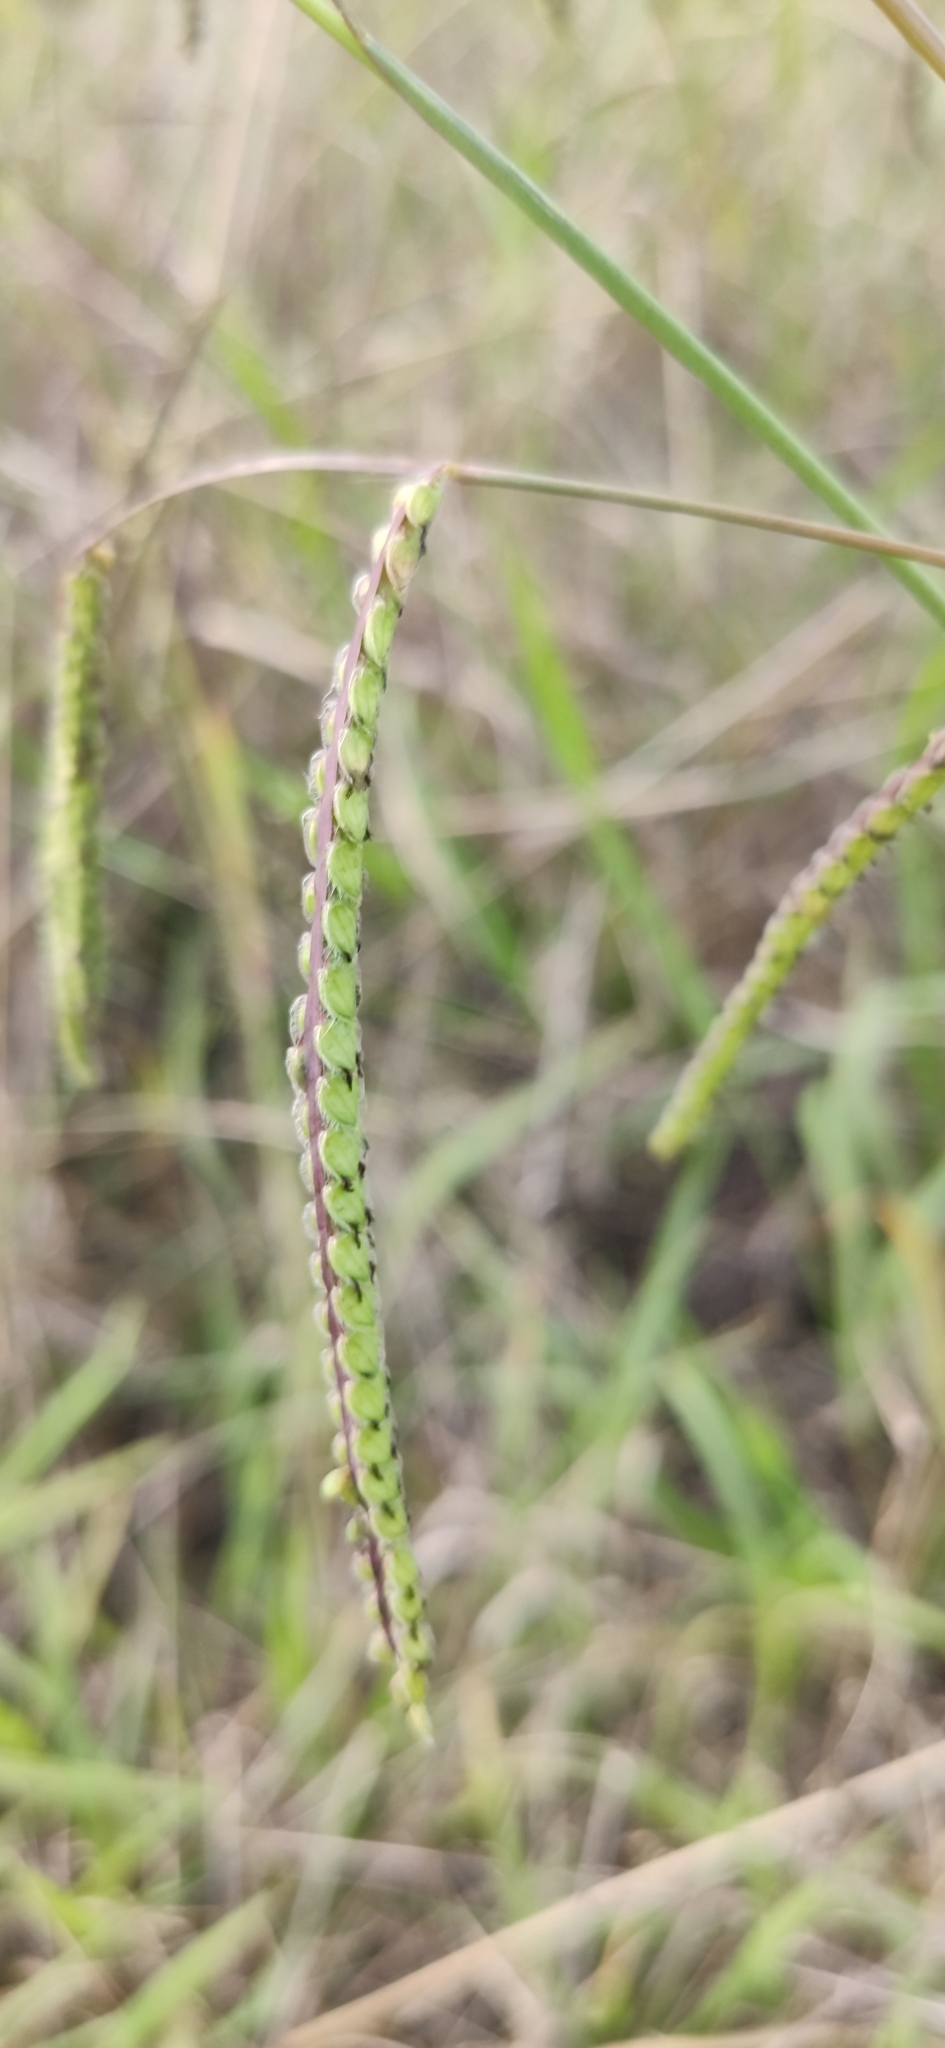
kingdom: Plantae
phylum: Tracheophyta
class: Liliopsida
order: Poales
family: Poaceae
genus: Paspalum
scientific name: Paspalum dilatatum
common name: Dallisgrass
